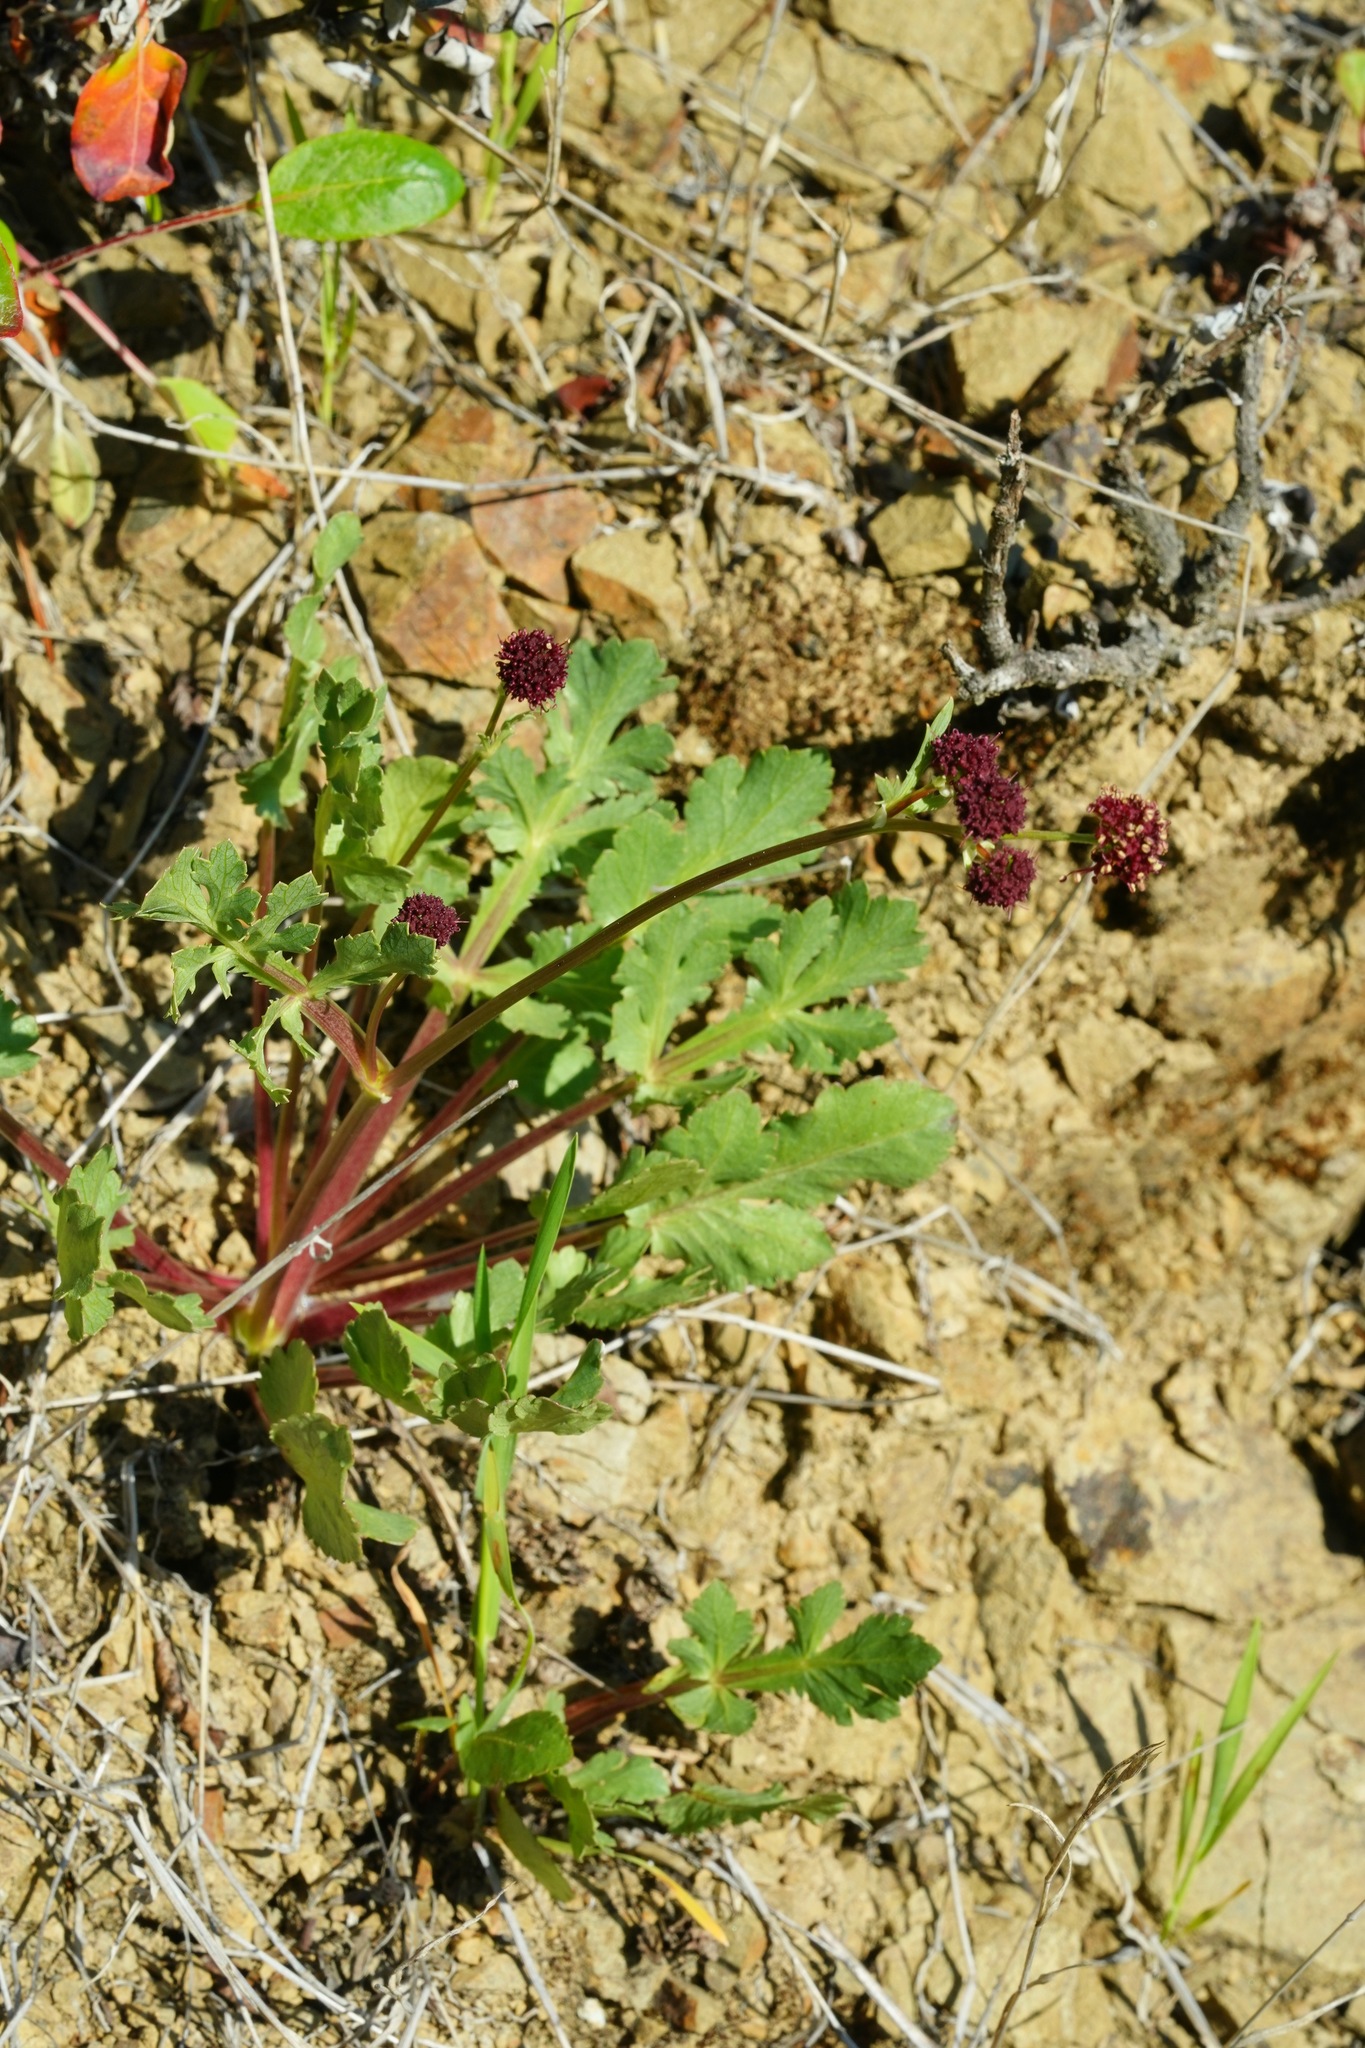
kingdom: Plantae
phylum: Tracheophyta
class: Magnoliopsida
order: Apiales
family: Apiaceae
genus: Sanicula
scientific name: Sanicula bipinnatifida
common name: Shoe-buttons
